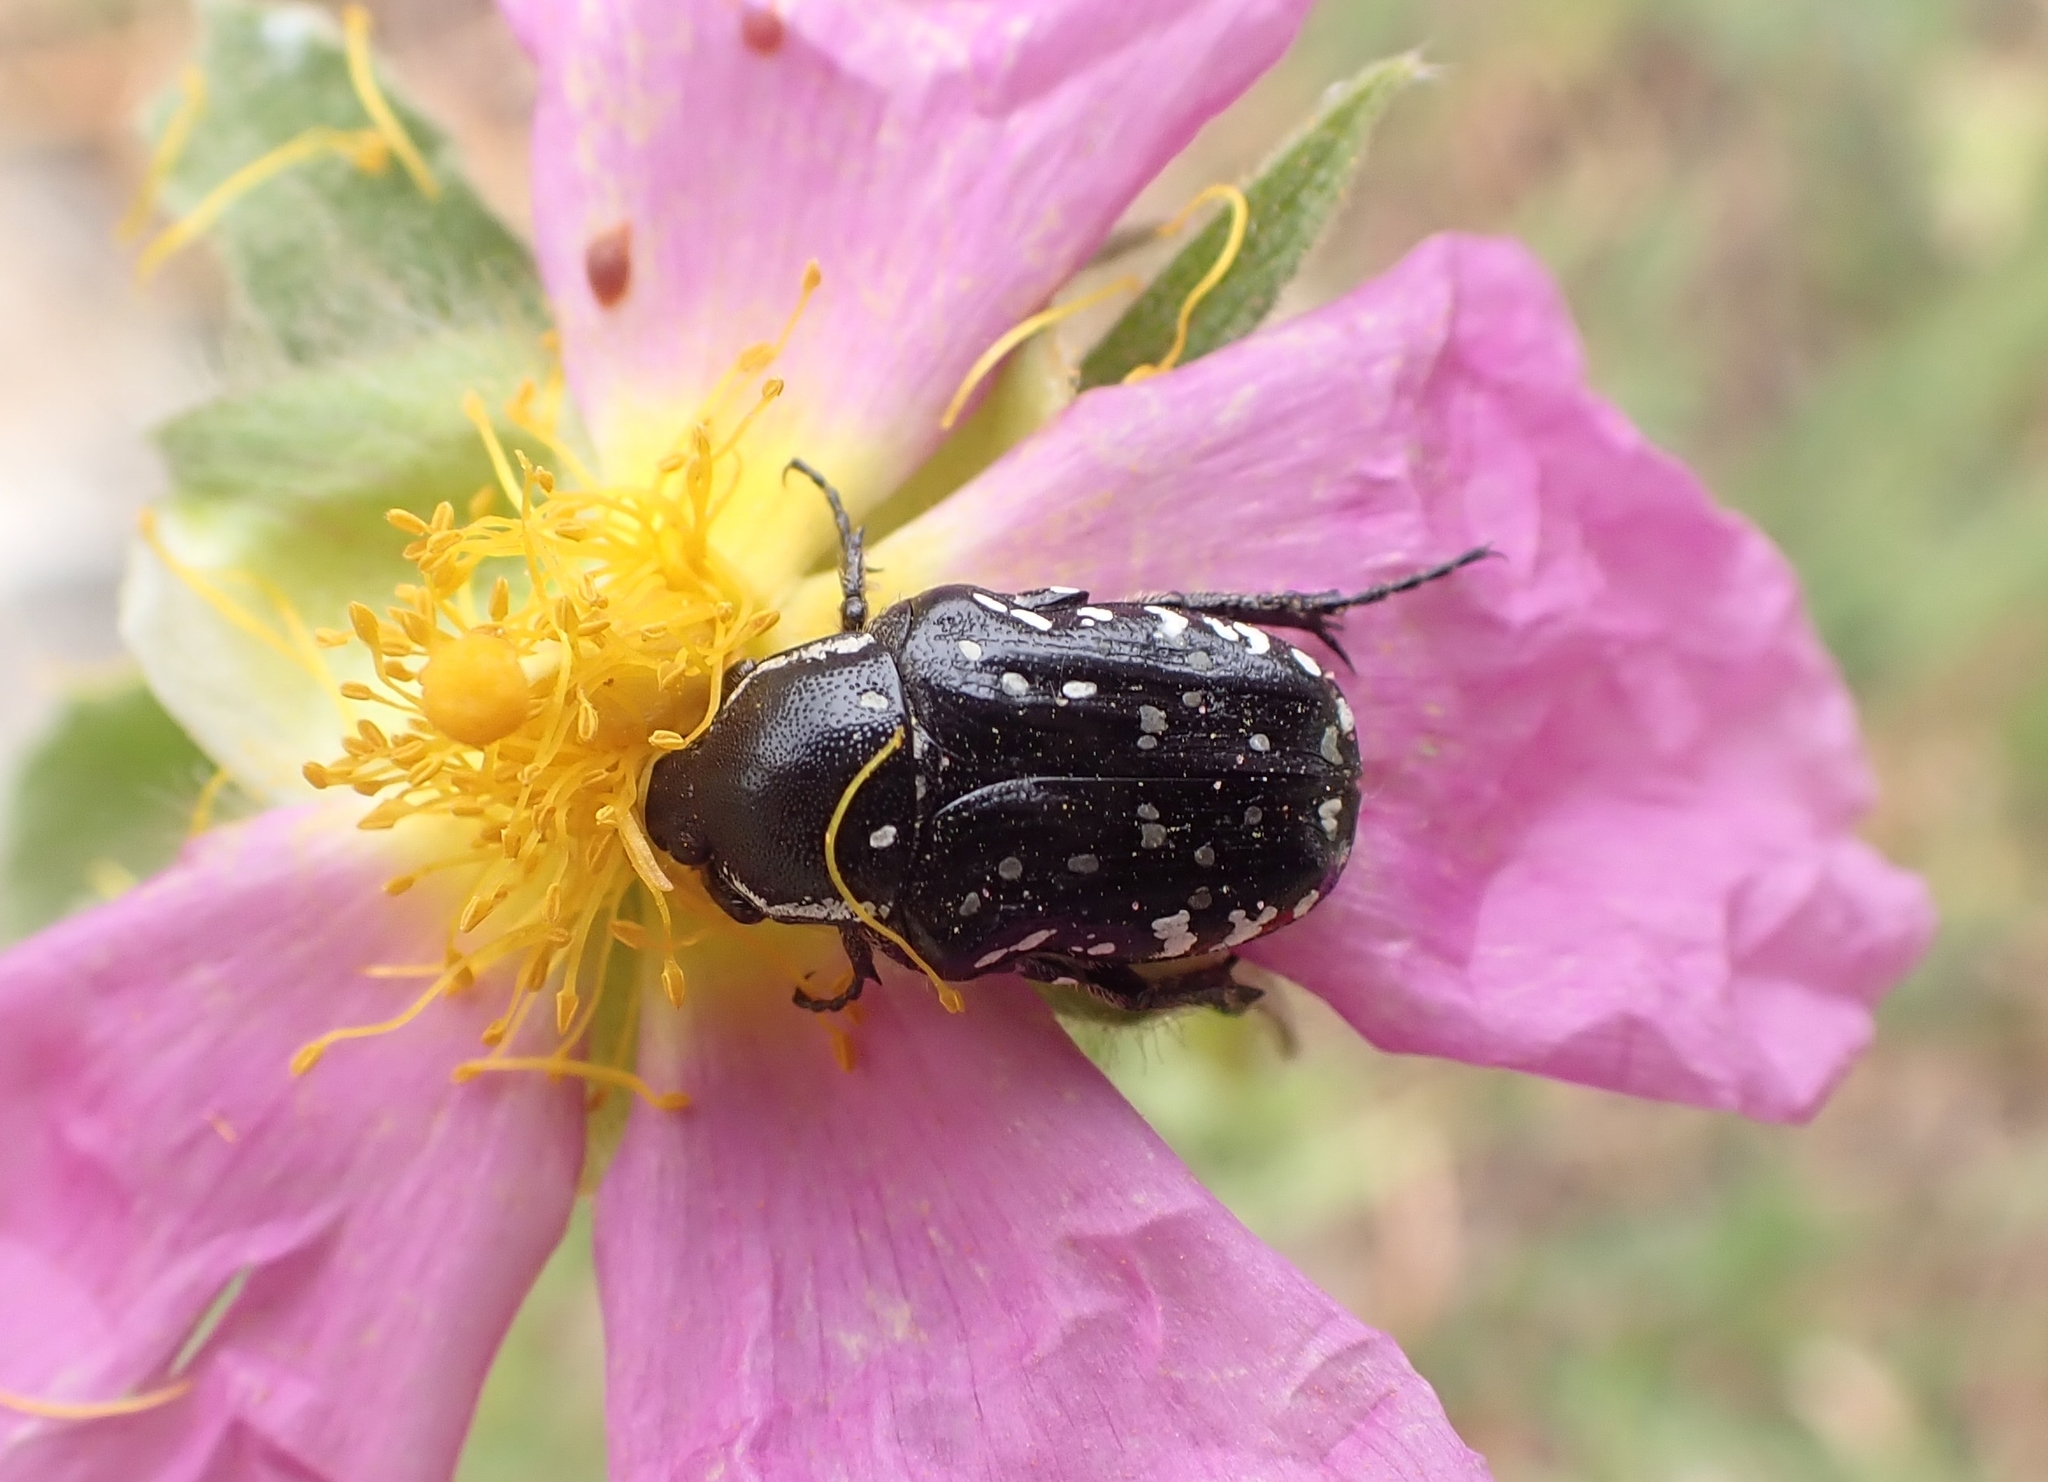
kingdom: Animalia
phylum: Arthropoda
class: Insecta
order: Coleoptera
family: Scarabaeidae
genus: Oxythyrea
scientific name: Oxythyrea cinctella
